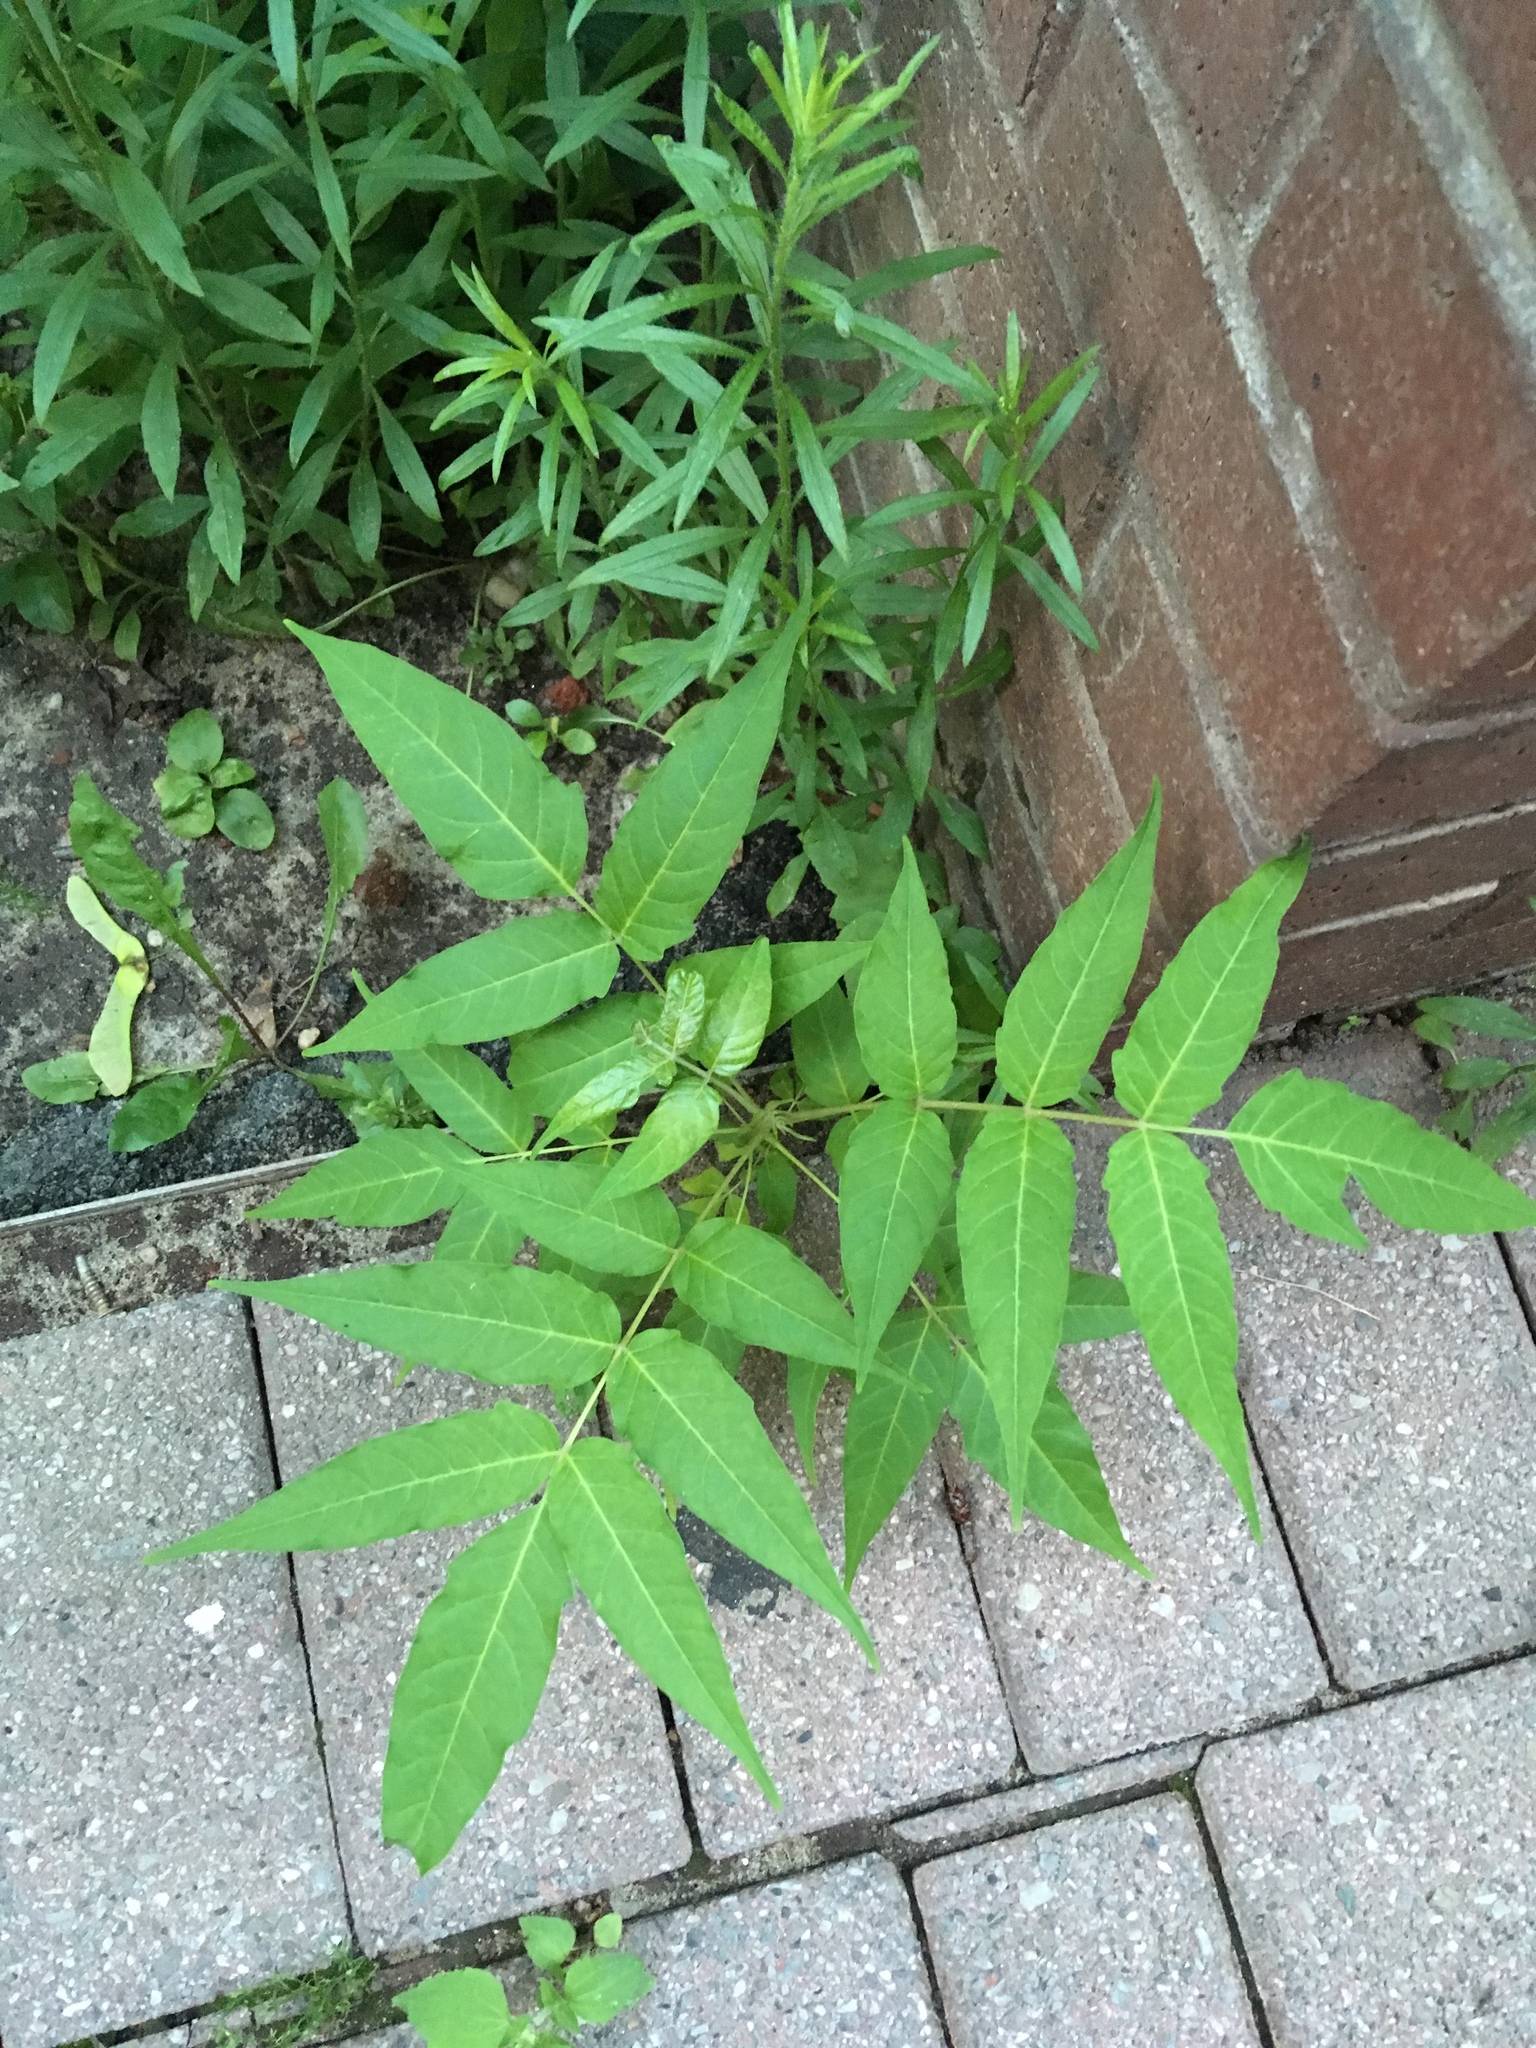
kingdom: Plantae
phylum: Tracheophyta
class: Magnoliopsida
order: Sapindales
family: Simaroubaceae
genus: Ailanthus
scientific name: Ailanthus altissima
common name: Tree-of-heaven
